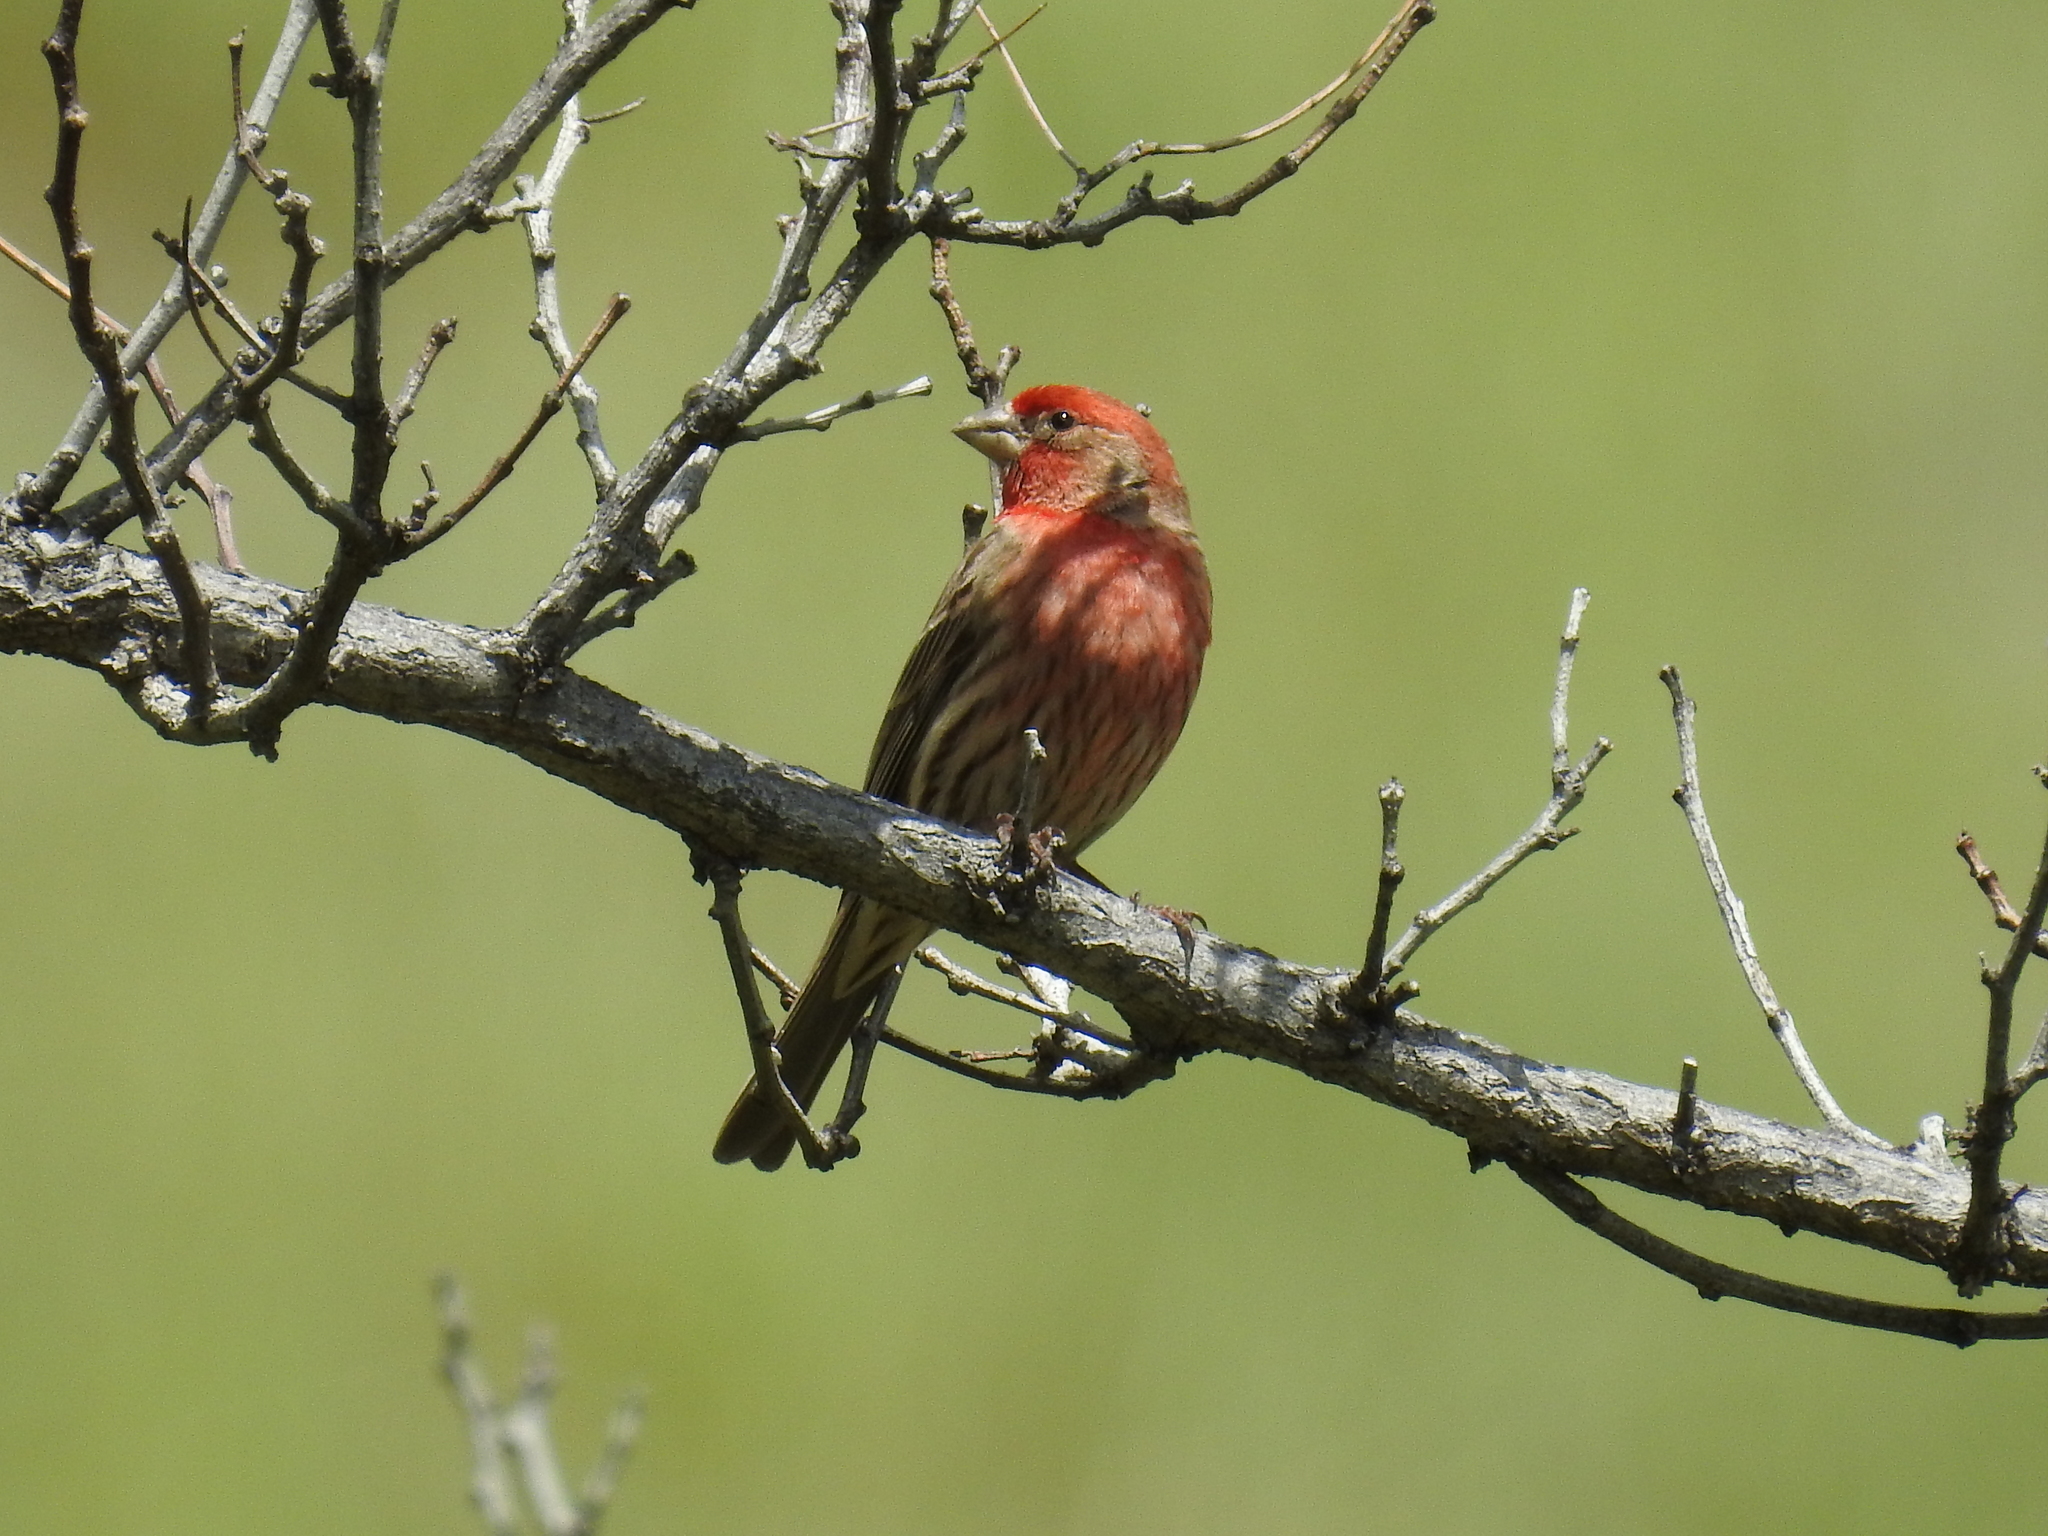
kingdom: Animalia
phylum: Chordata
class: Aves
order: Passeriformes
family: Fringillidae
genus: Haemorhous
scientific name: Haemorhous mexicanus
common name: House finch
